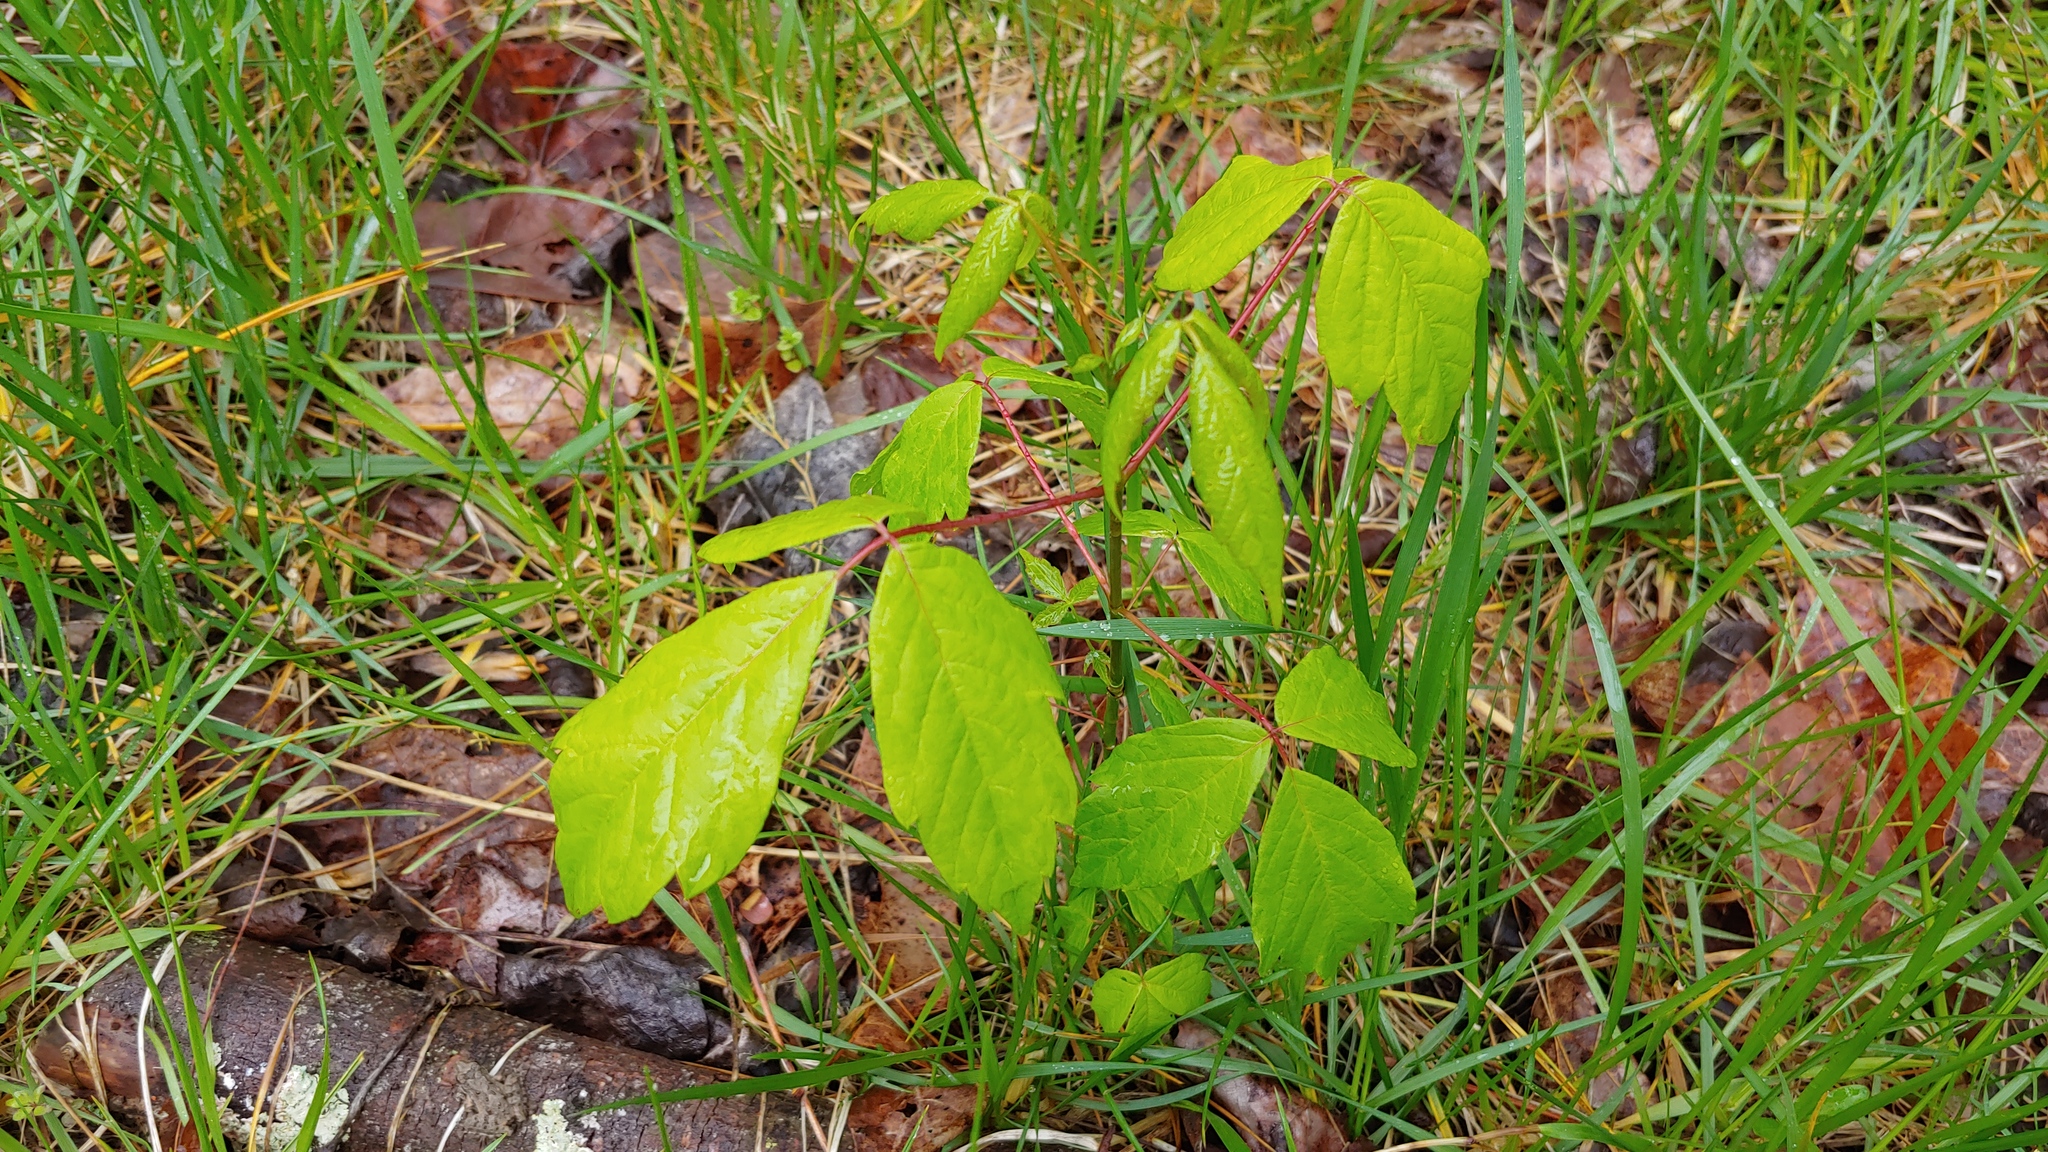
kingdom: Plantae
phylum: Tracheophyta
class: Magnoliopsida
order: Sapindales
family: Sapindaceae
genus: Acer
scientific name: Acer negundo
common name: Ashleaf maple
